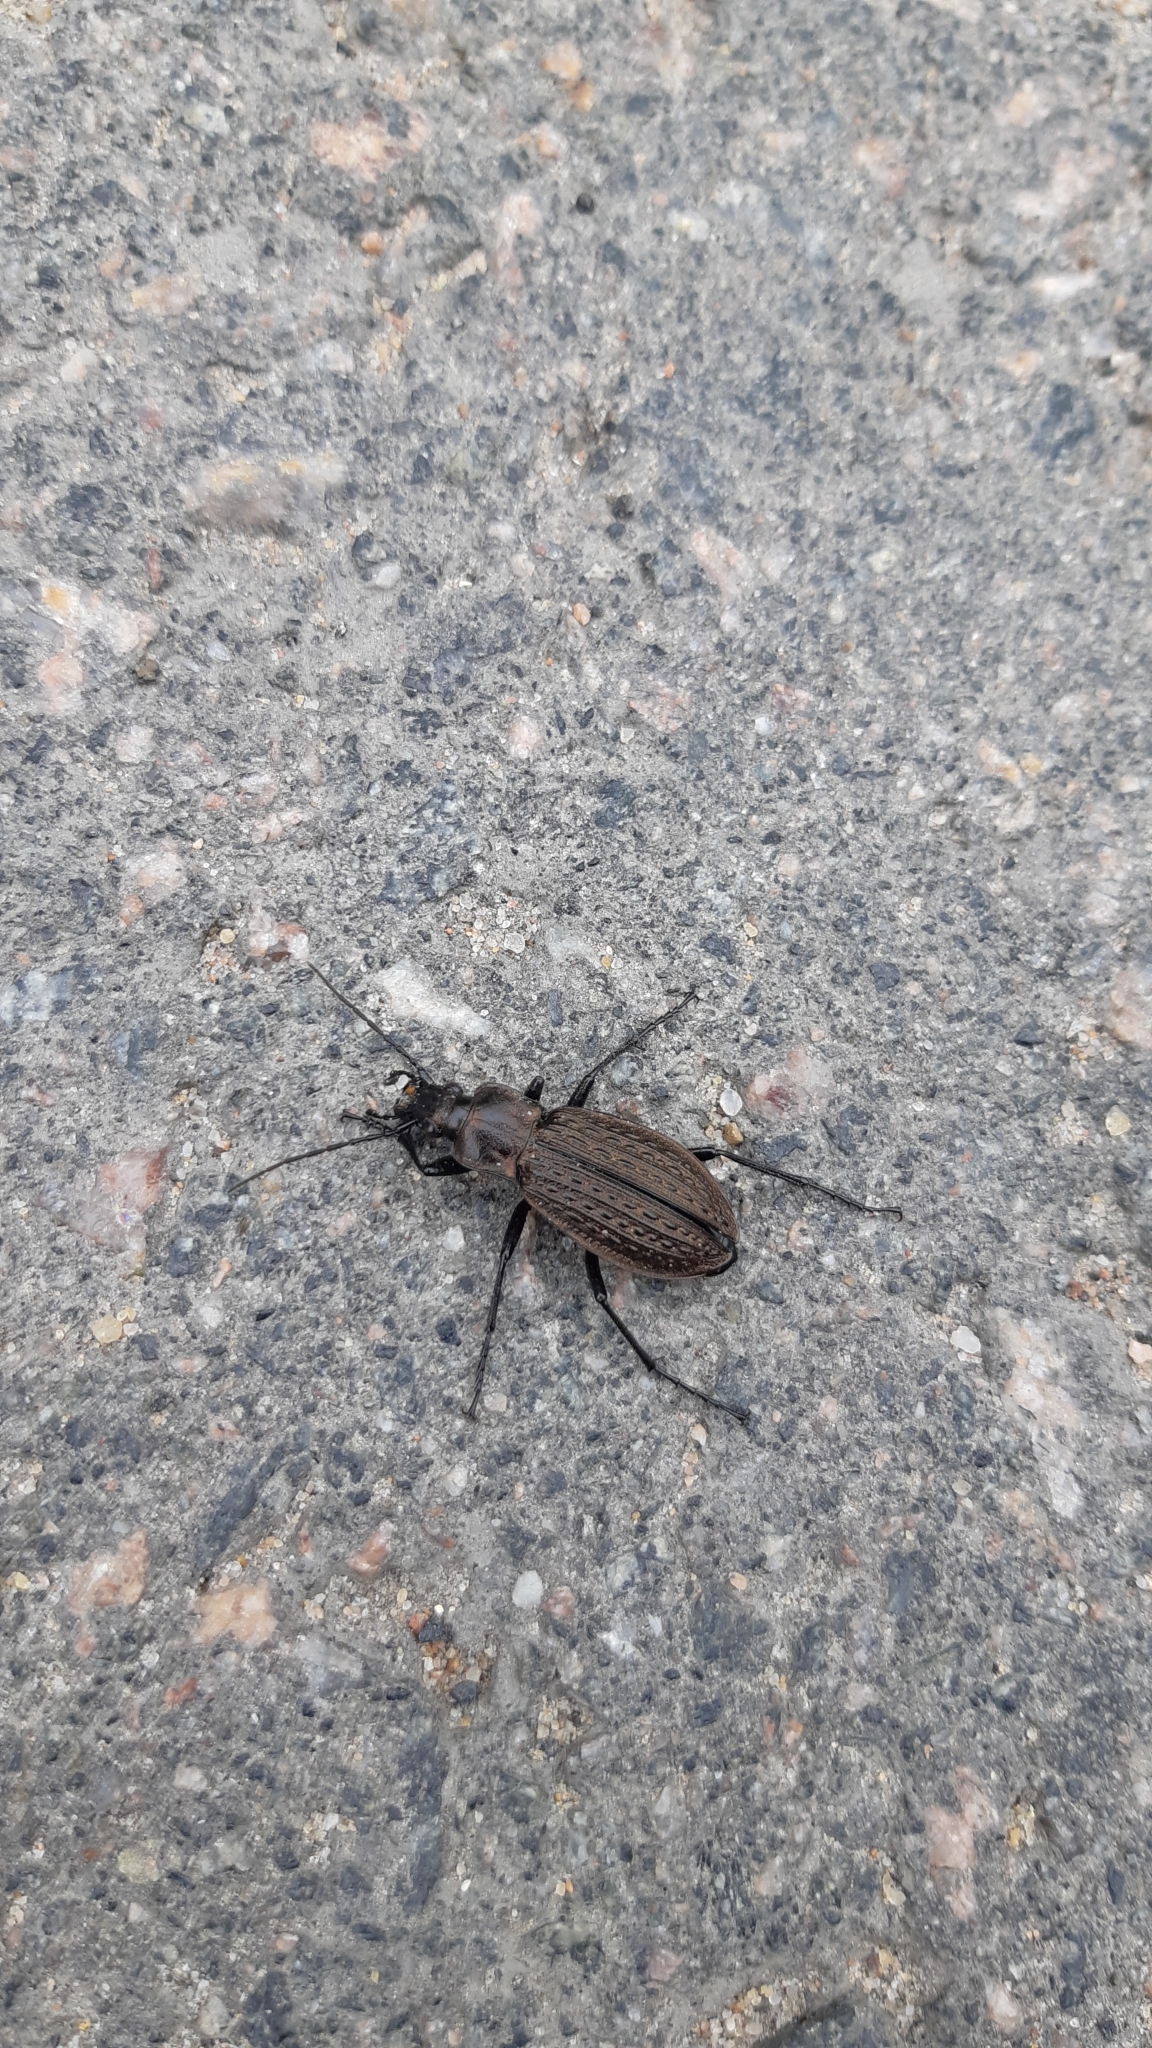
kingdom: Animalia
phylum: Arthropoda
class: Insecta
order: Coleoptera
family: Carabidae
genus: Carabus
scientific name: Carabus granulatus
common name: Granulate ground beetle
